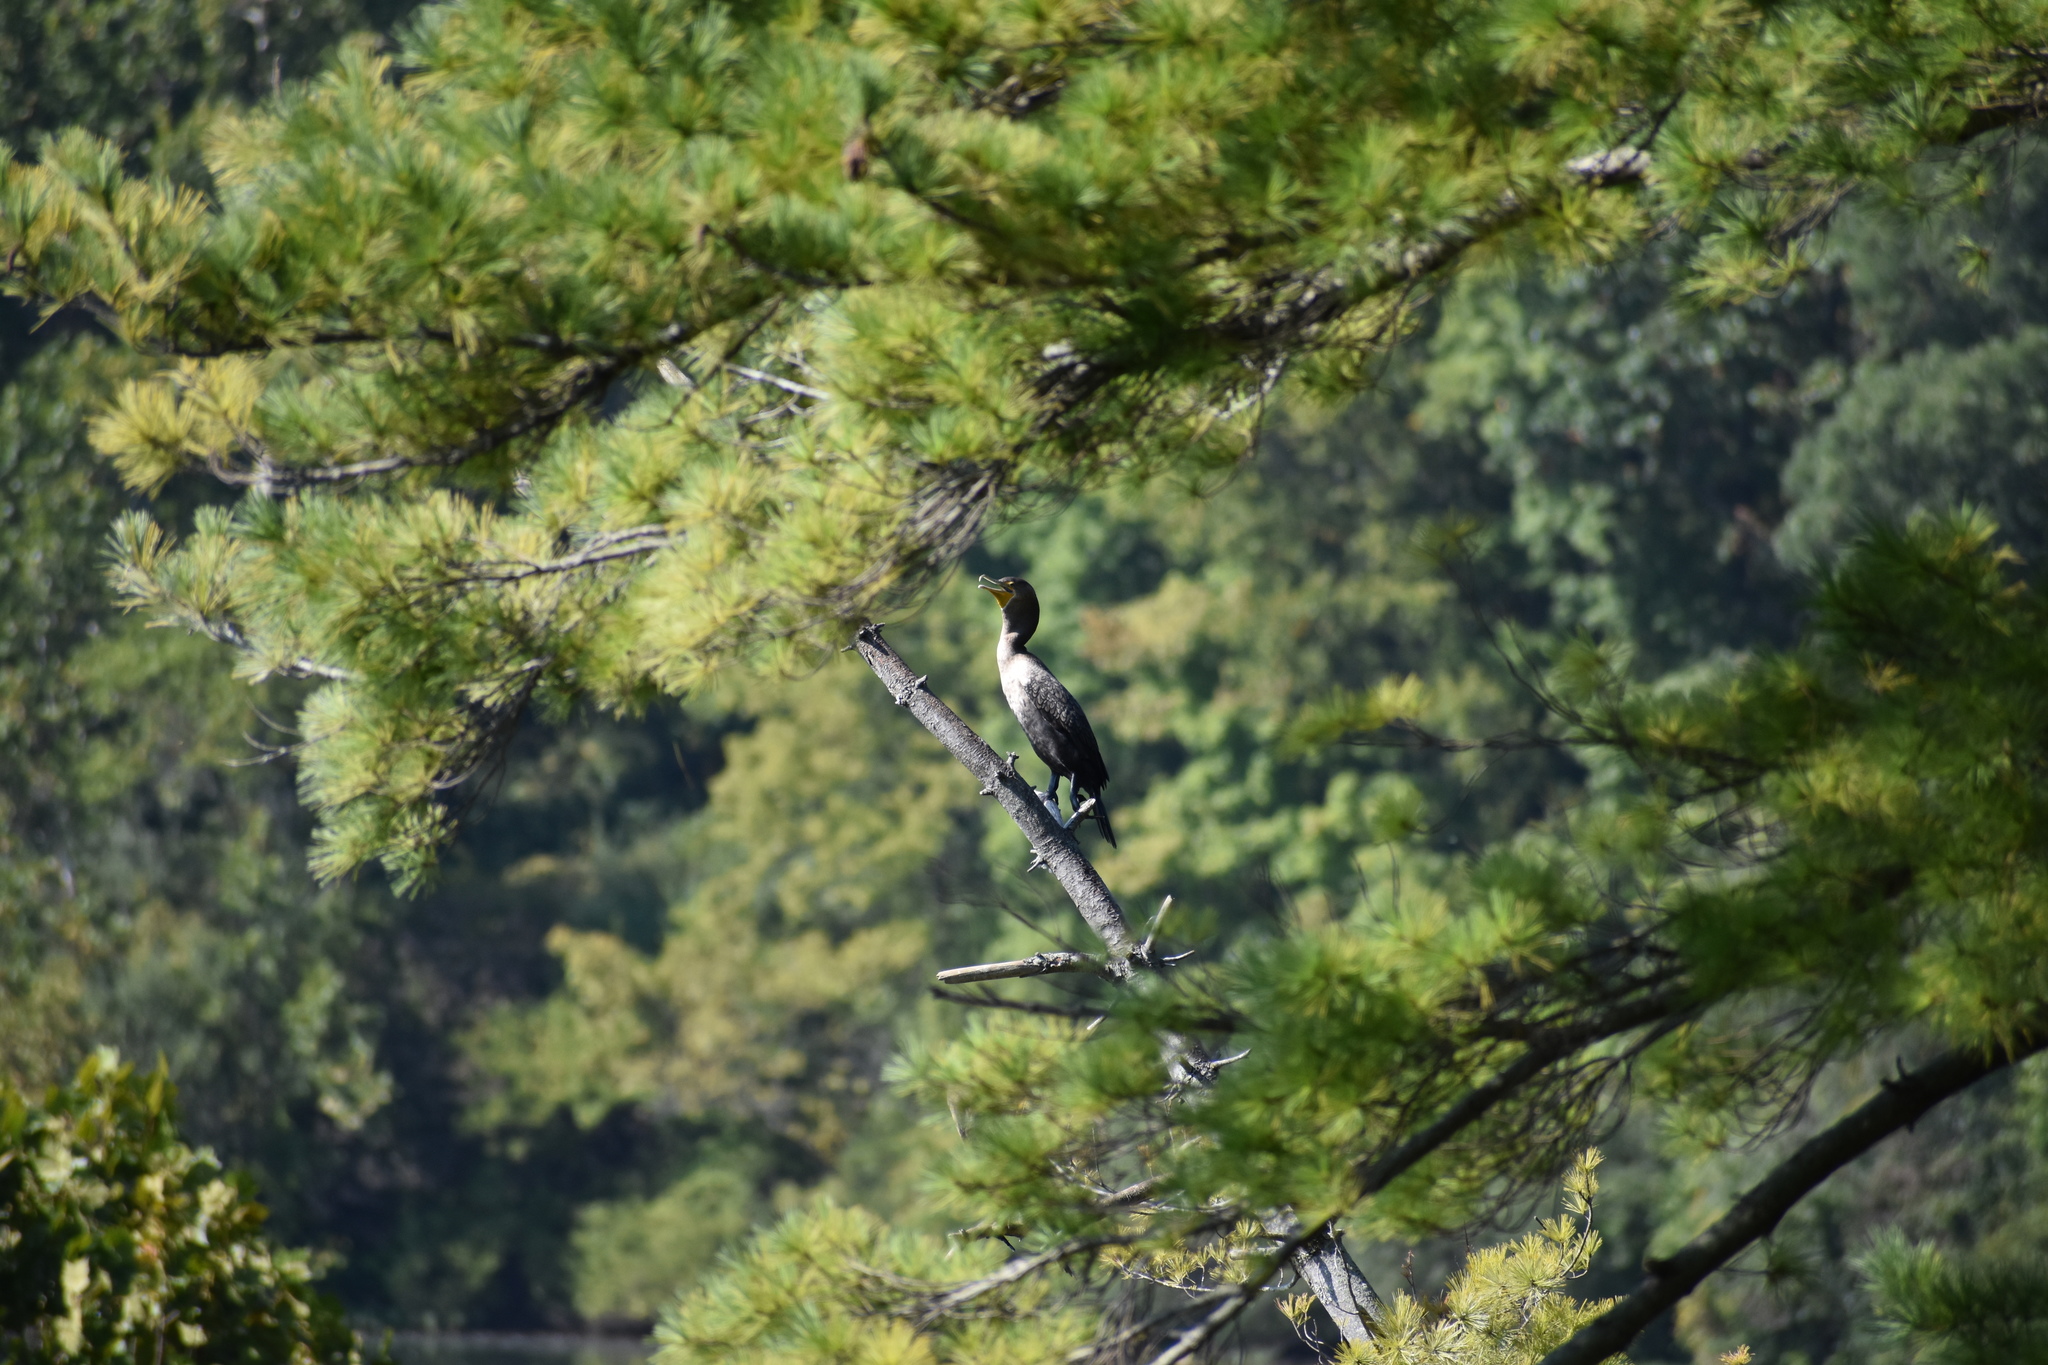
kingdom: Animalia
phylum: Chordata
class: Aves
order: Suliformes
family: Phalacrocoracidae
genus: Phalacrocorax
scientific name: Phalacrocorax auritus
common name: Double-crested cormorant
